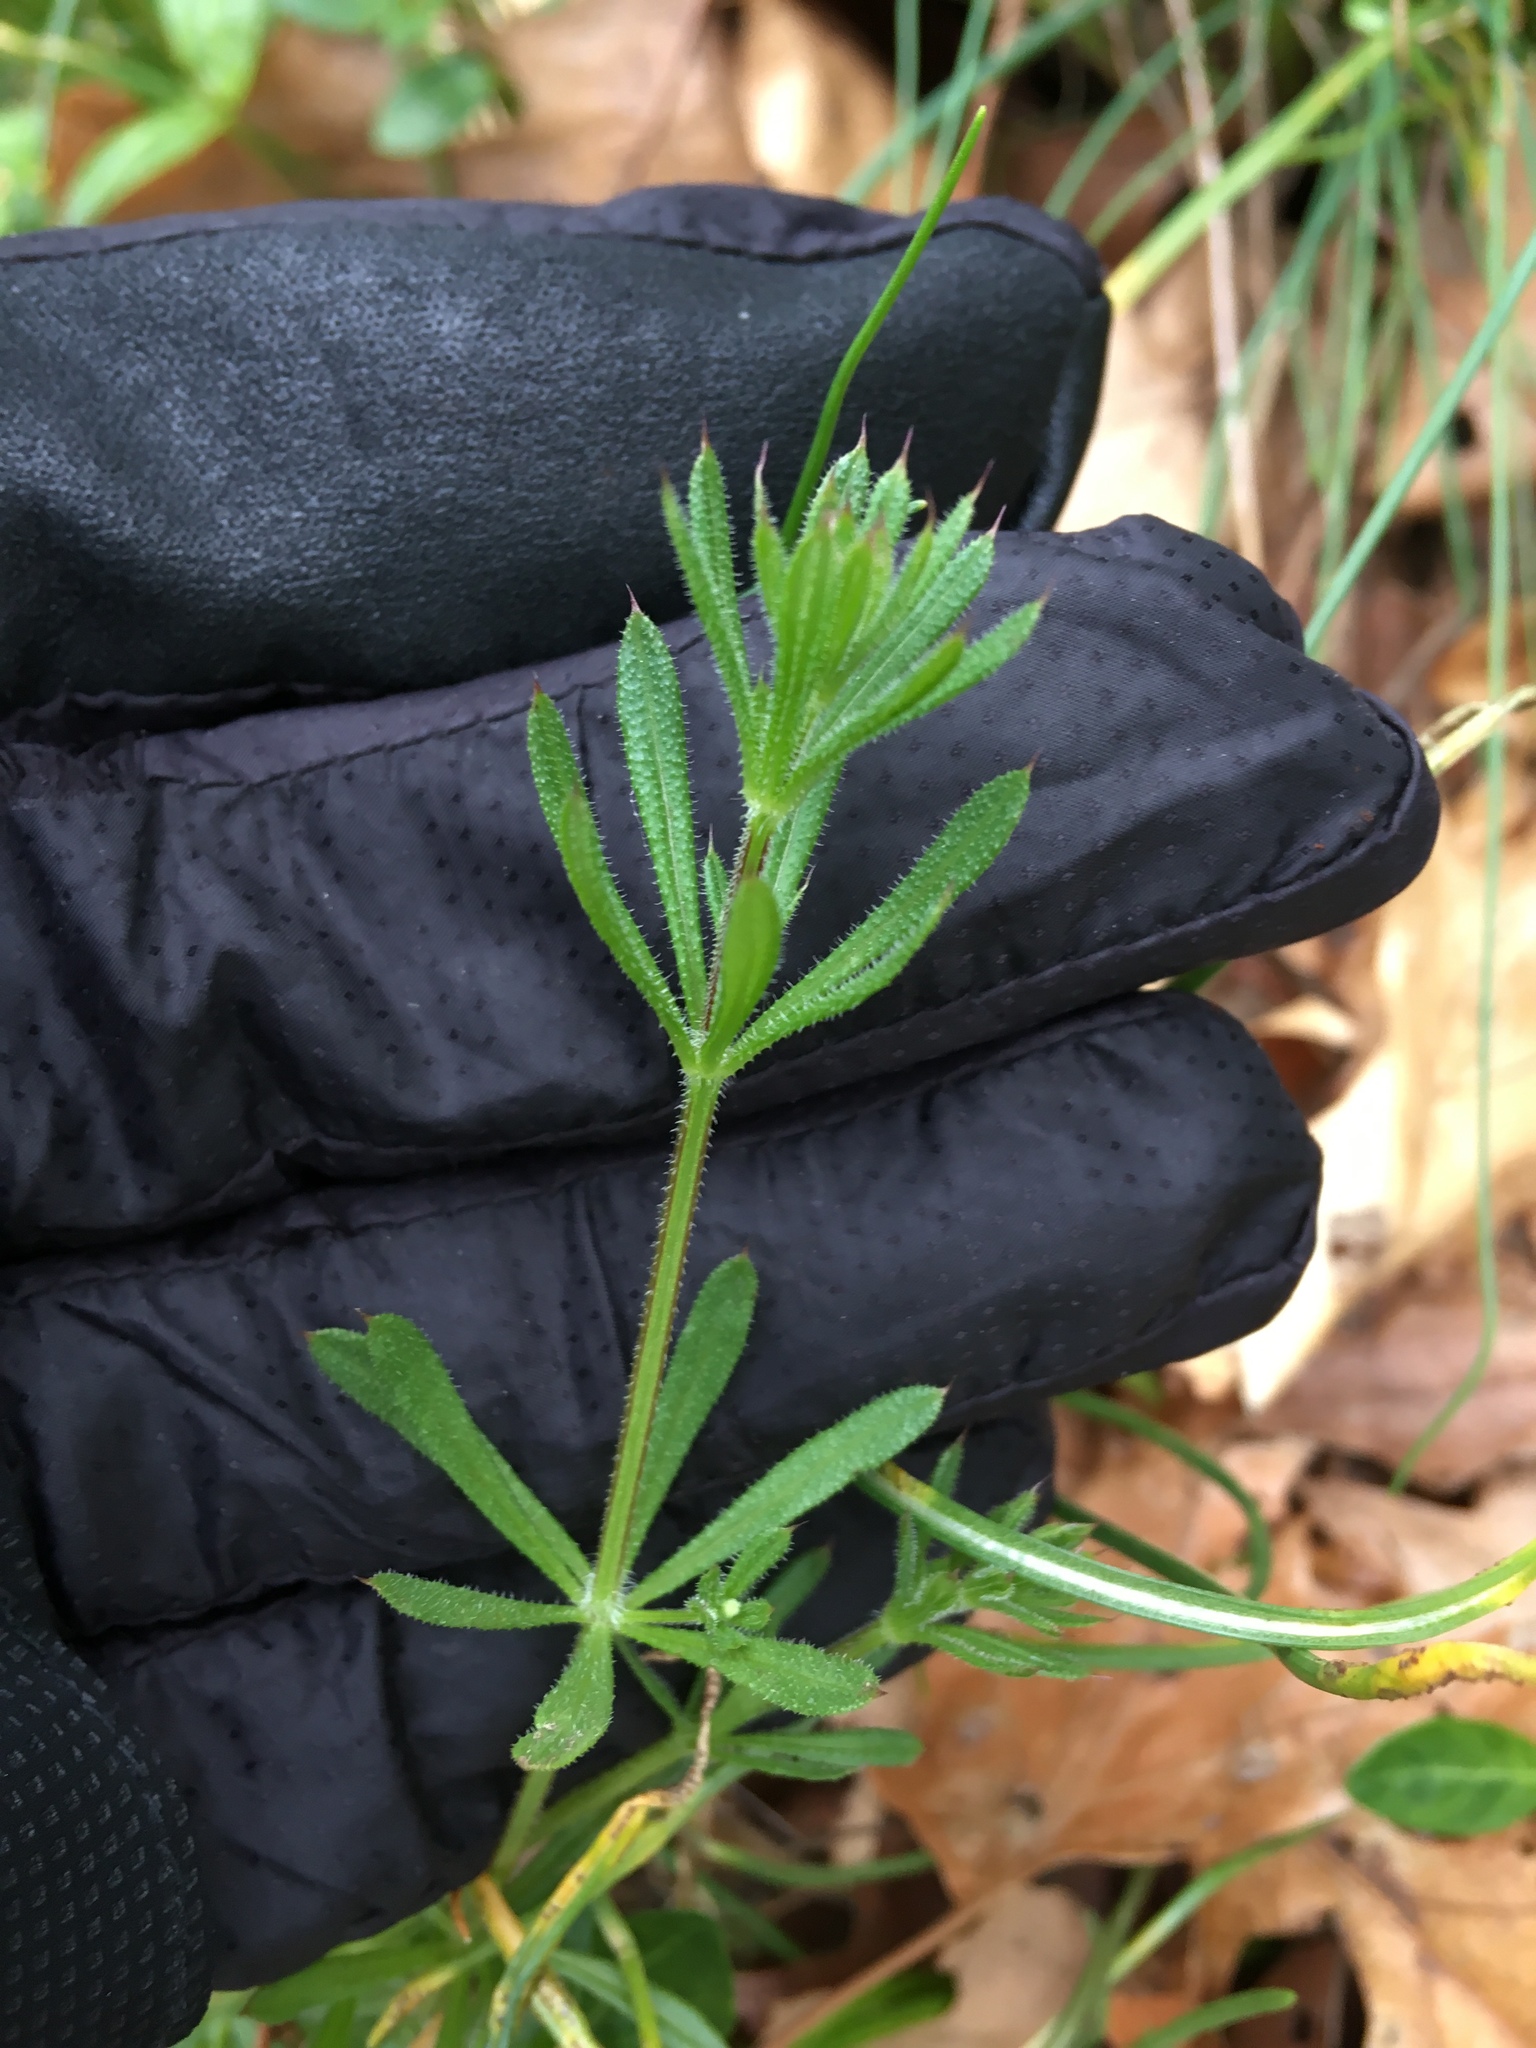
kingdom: Plantae
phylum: Tracheophyta
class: Magnoliopsida
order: Gentianales
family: Rubiaceae
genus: Galium
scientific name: Galium aparine
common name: Cleavers
